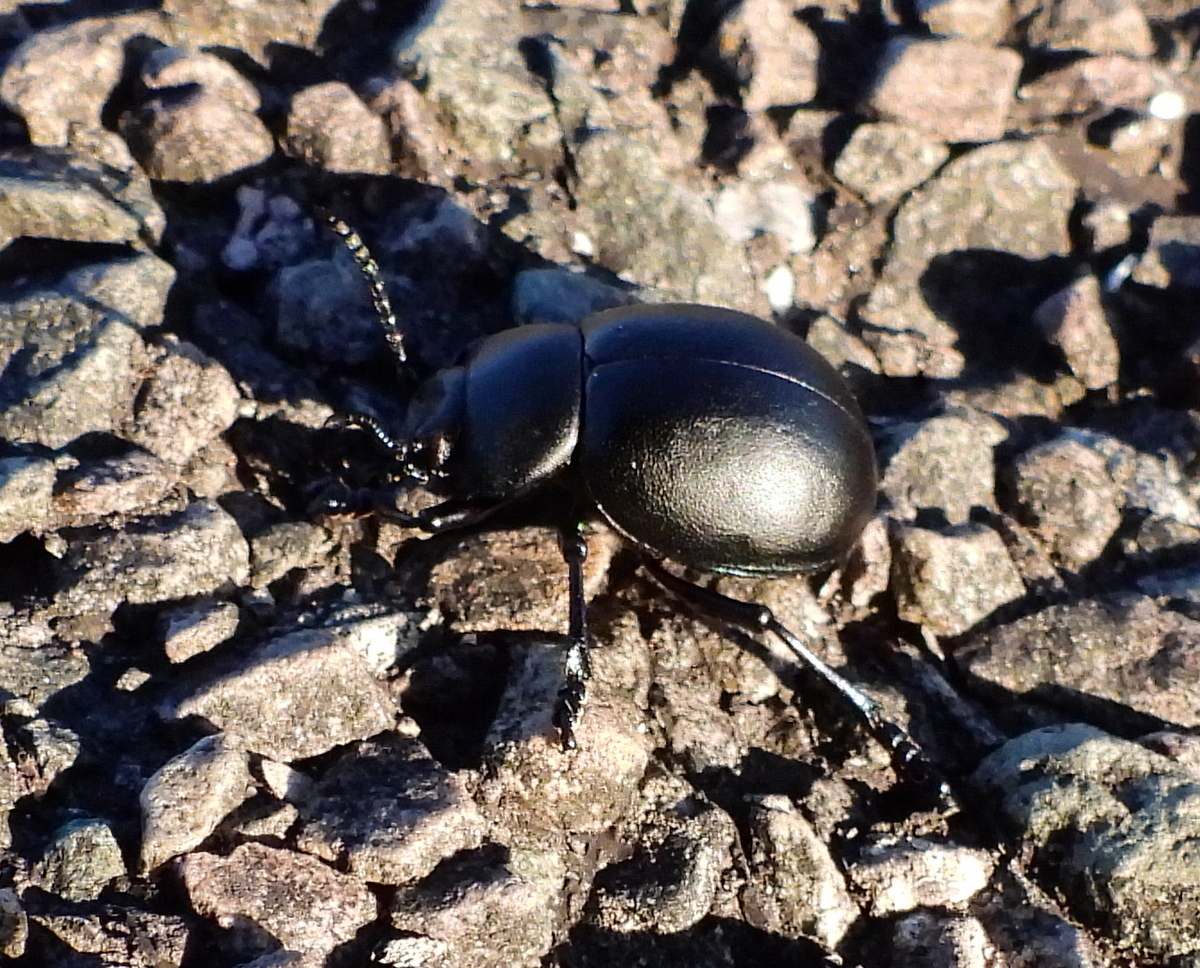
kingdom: Animalia
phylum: Arthropoda
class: Insecta
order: Coleoptera
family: Chrysomelidae
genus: Timarcha
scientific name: Timarcha tenebricosa
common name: Bloody-nosed beetle
